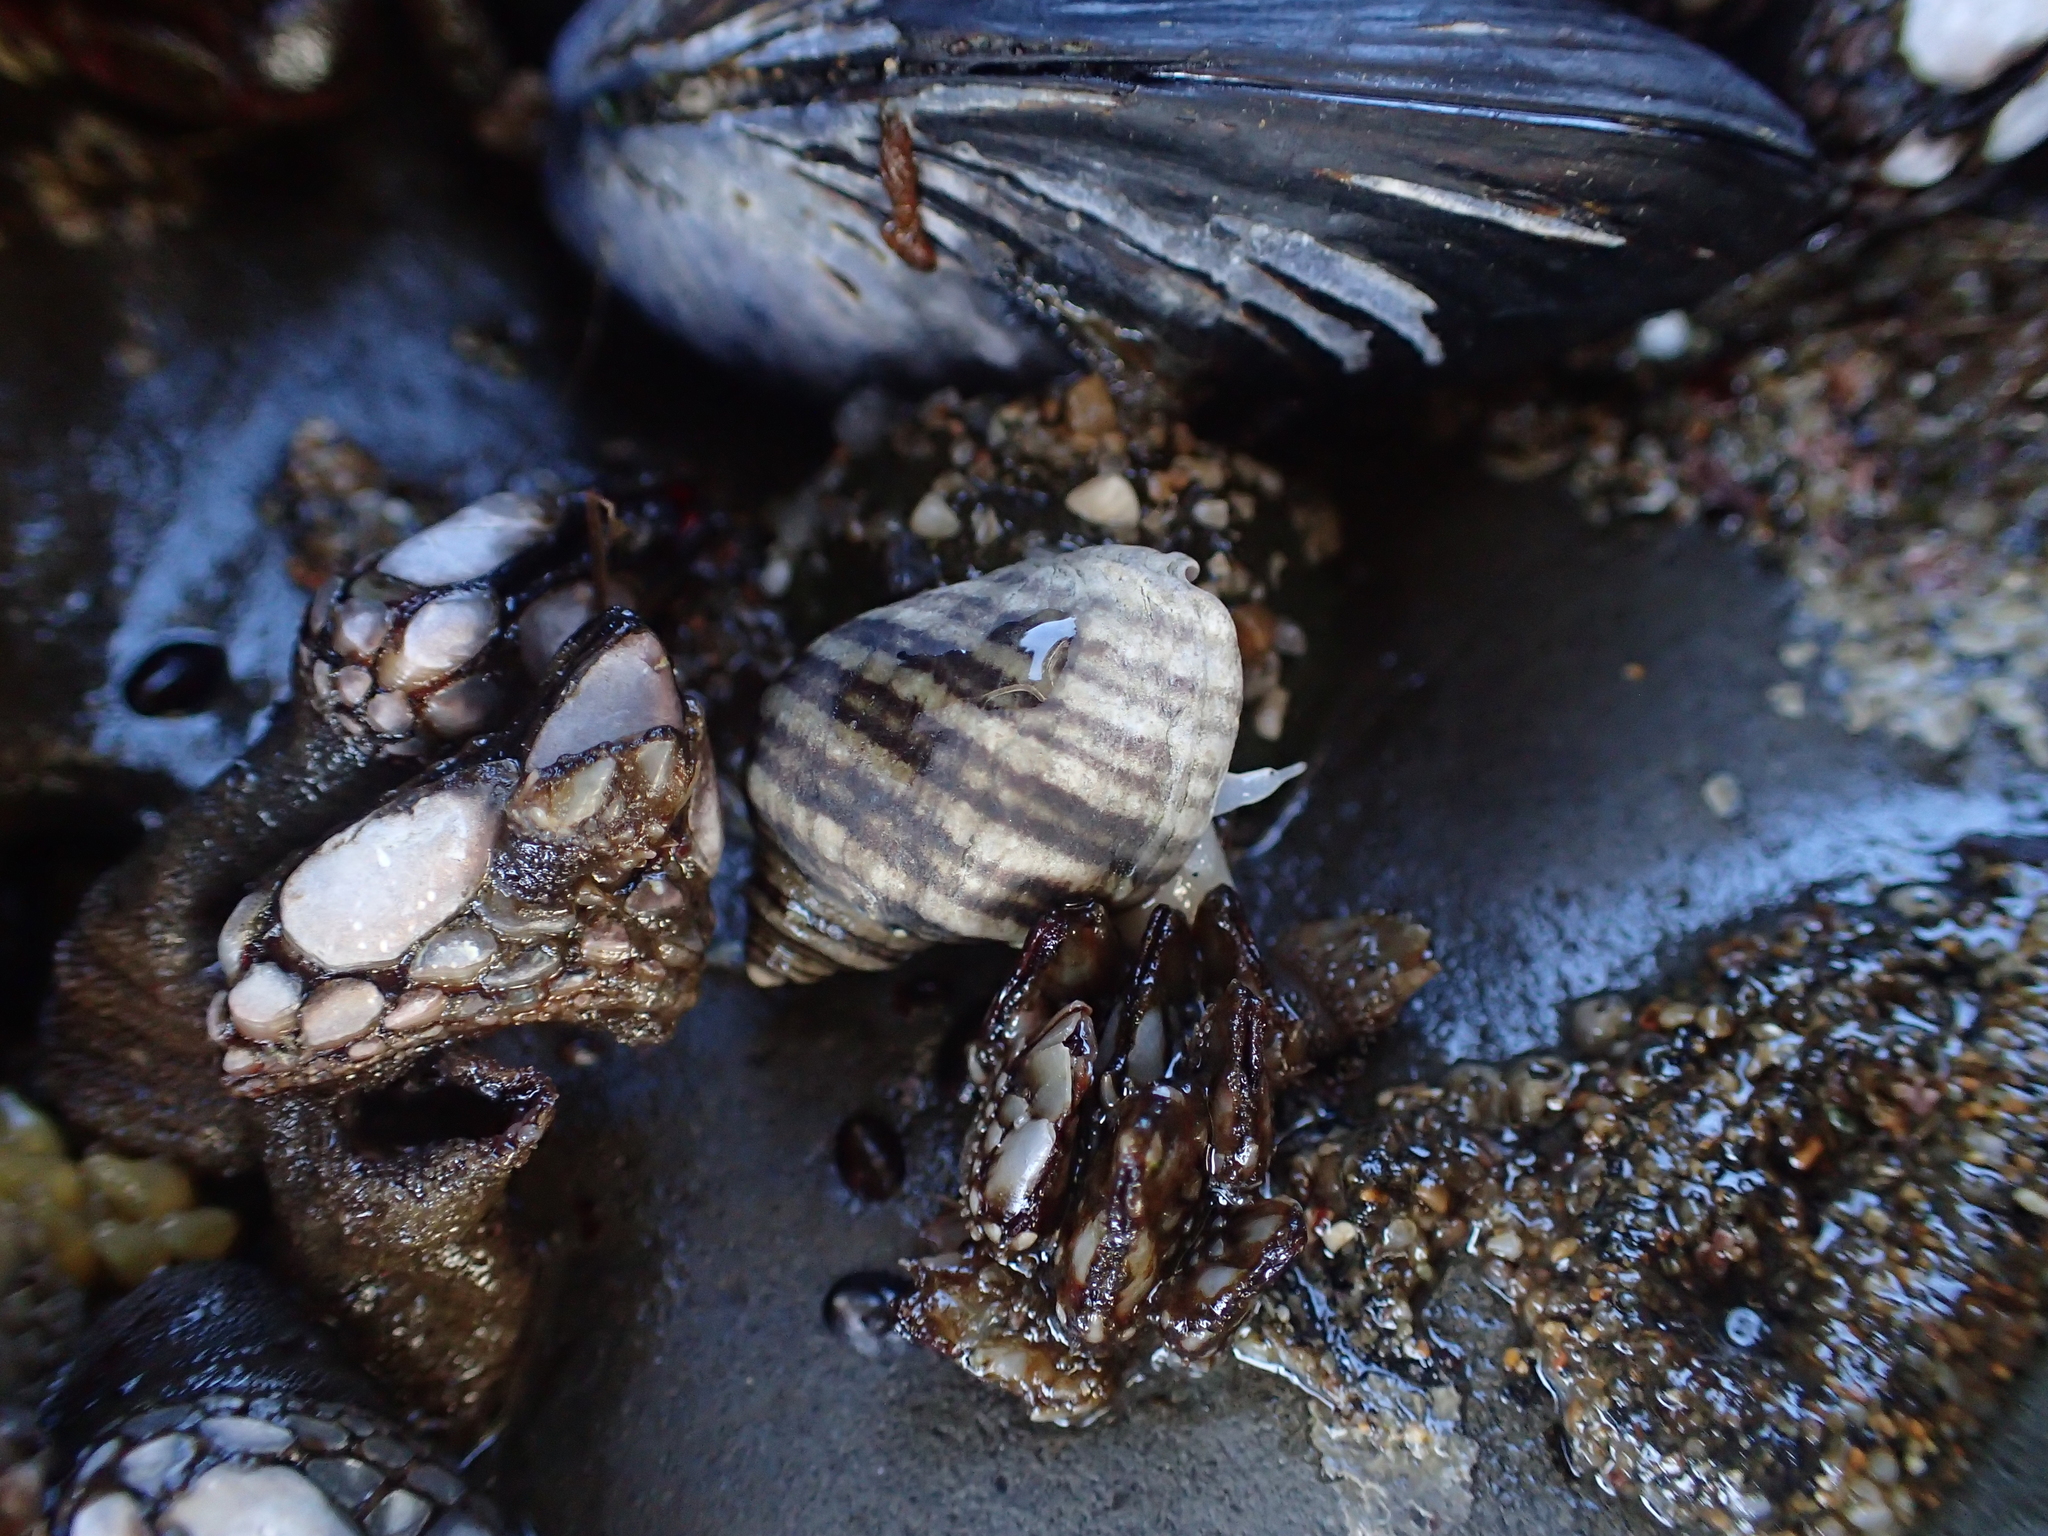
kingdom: Animalia
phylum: Mollusca
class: Gastropoda
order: Neogastropoda
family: Muricidae
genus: Nucella
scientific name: Nucella ostrina
